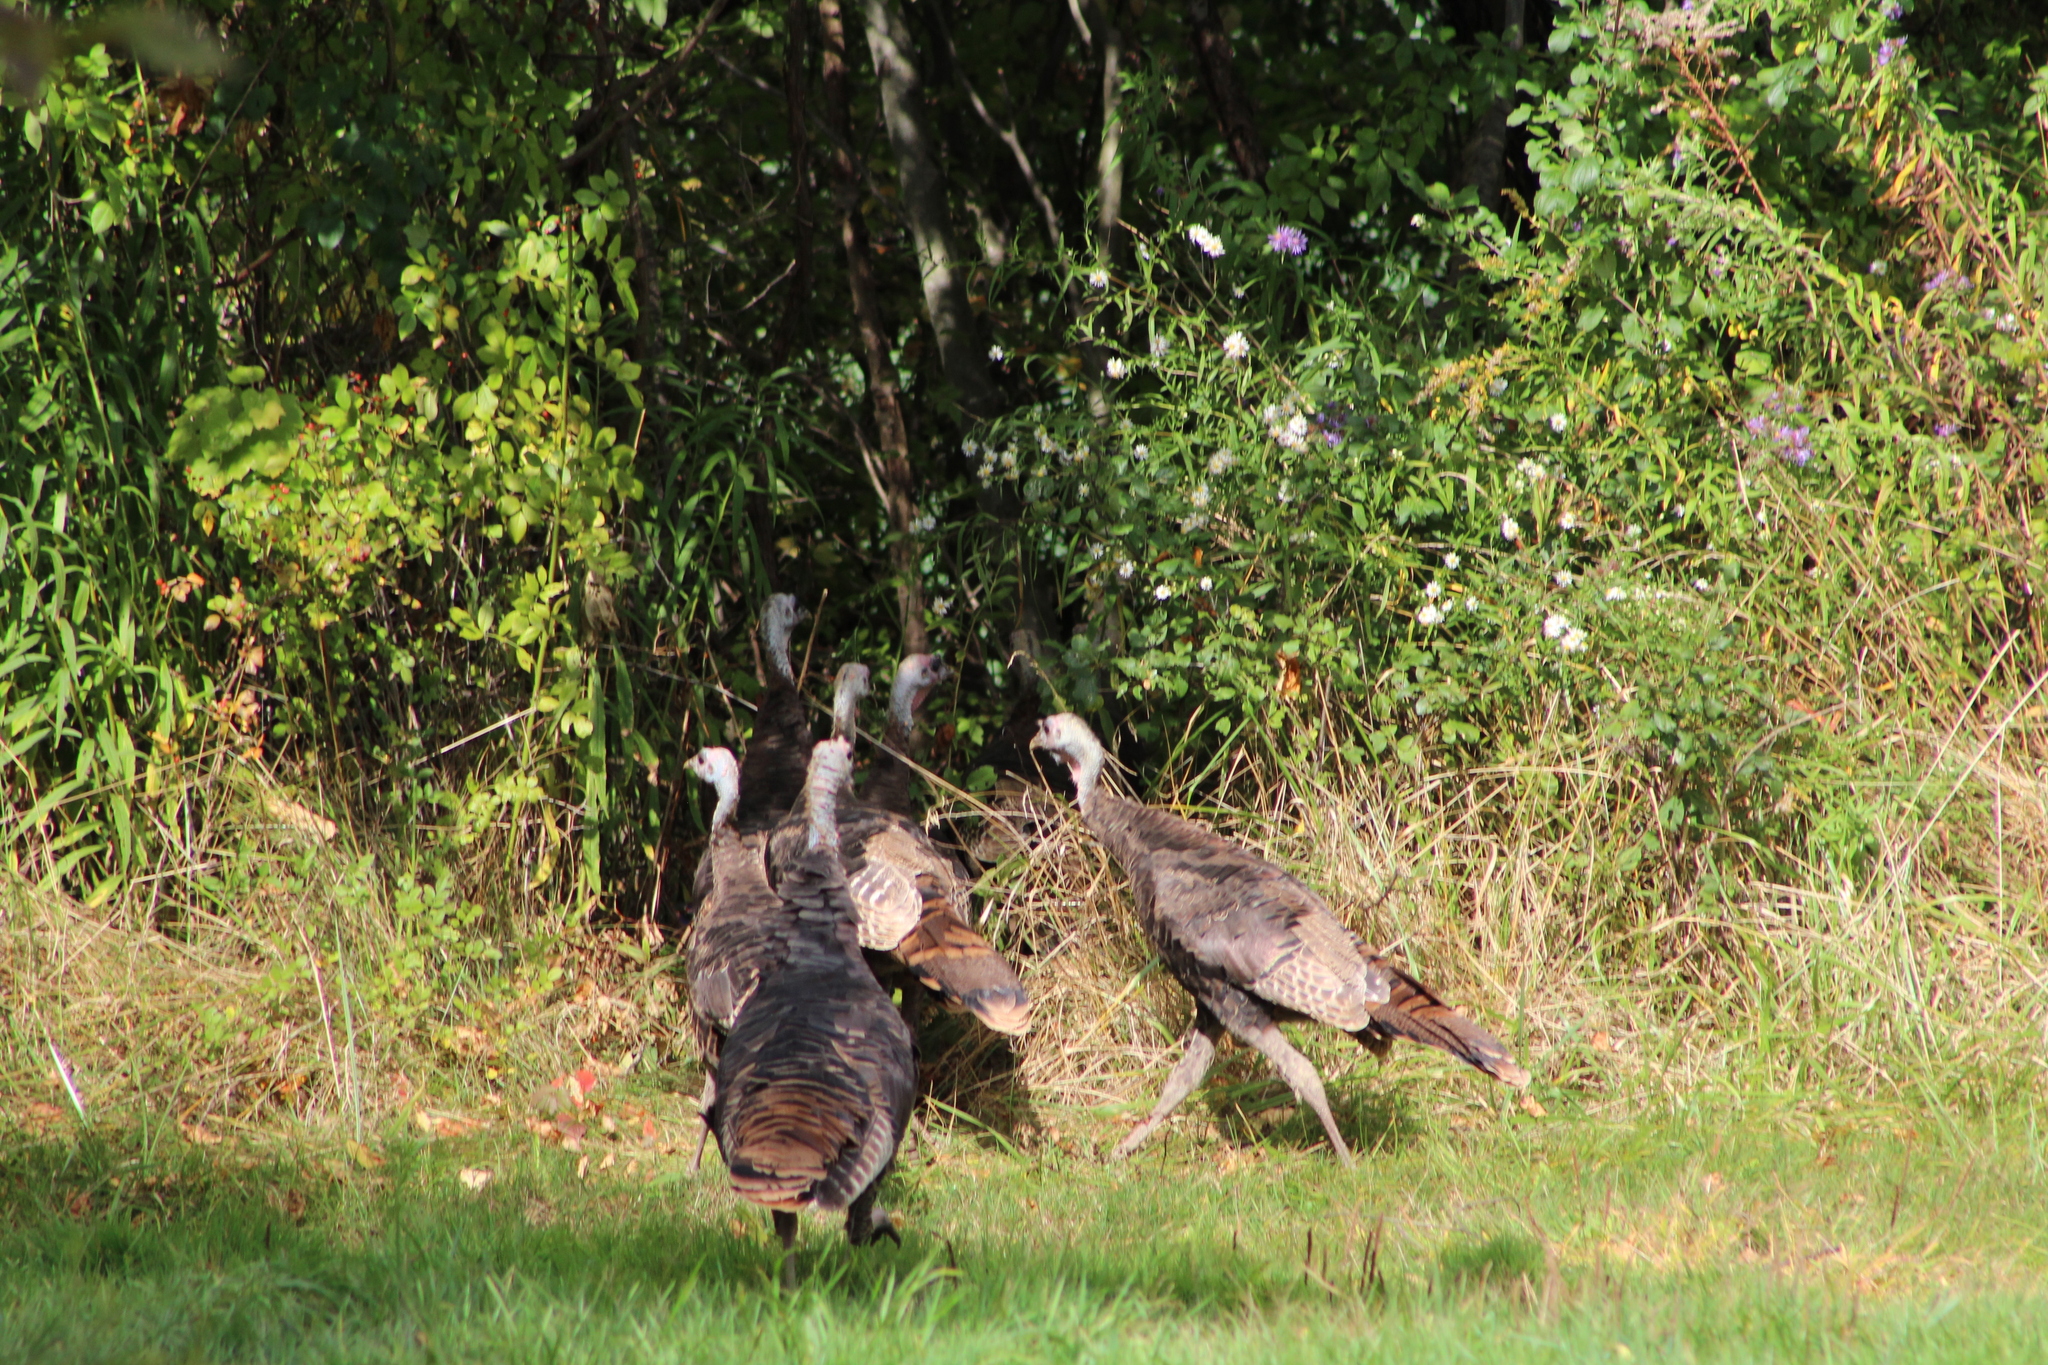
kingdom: Animalia
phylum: Chordata
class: Aves
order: Galliformes
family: Phasianidae
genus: Meleagris
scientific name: Meleagris gallopavo
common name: Wild turkey
